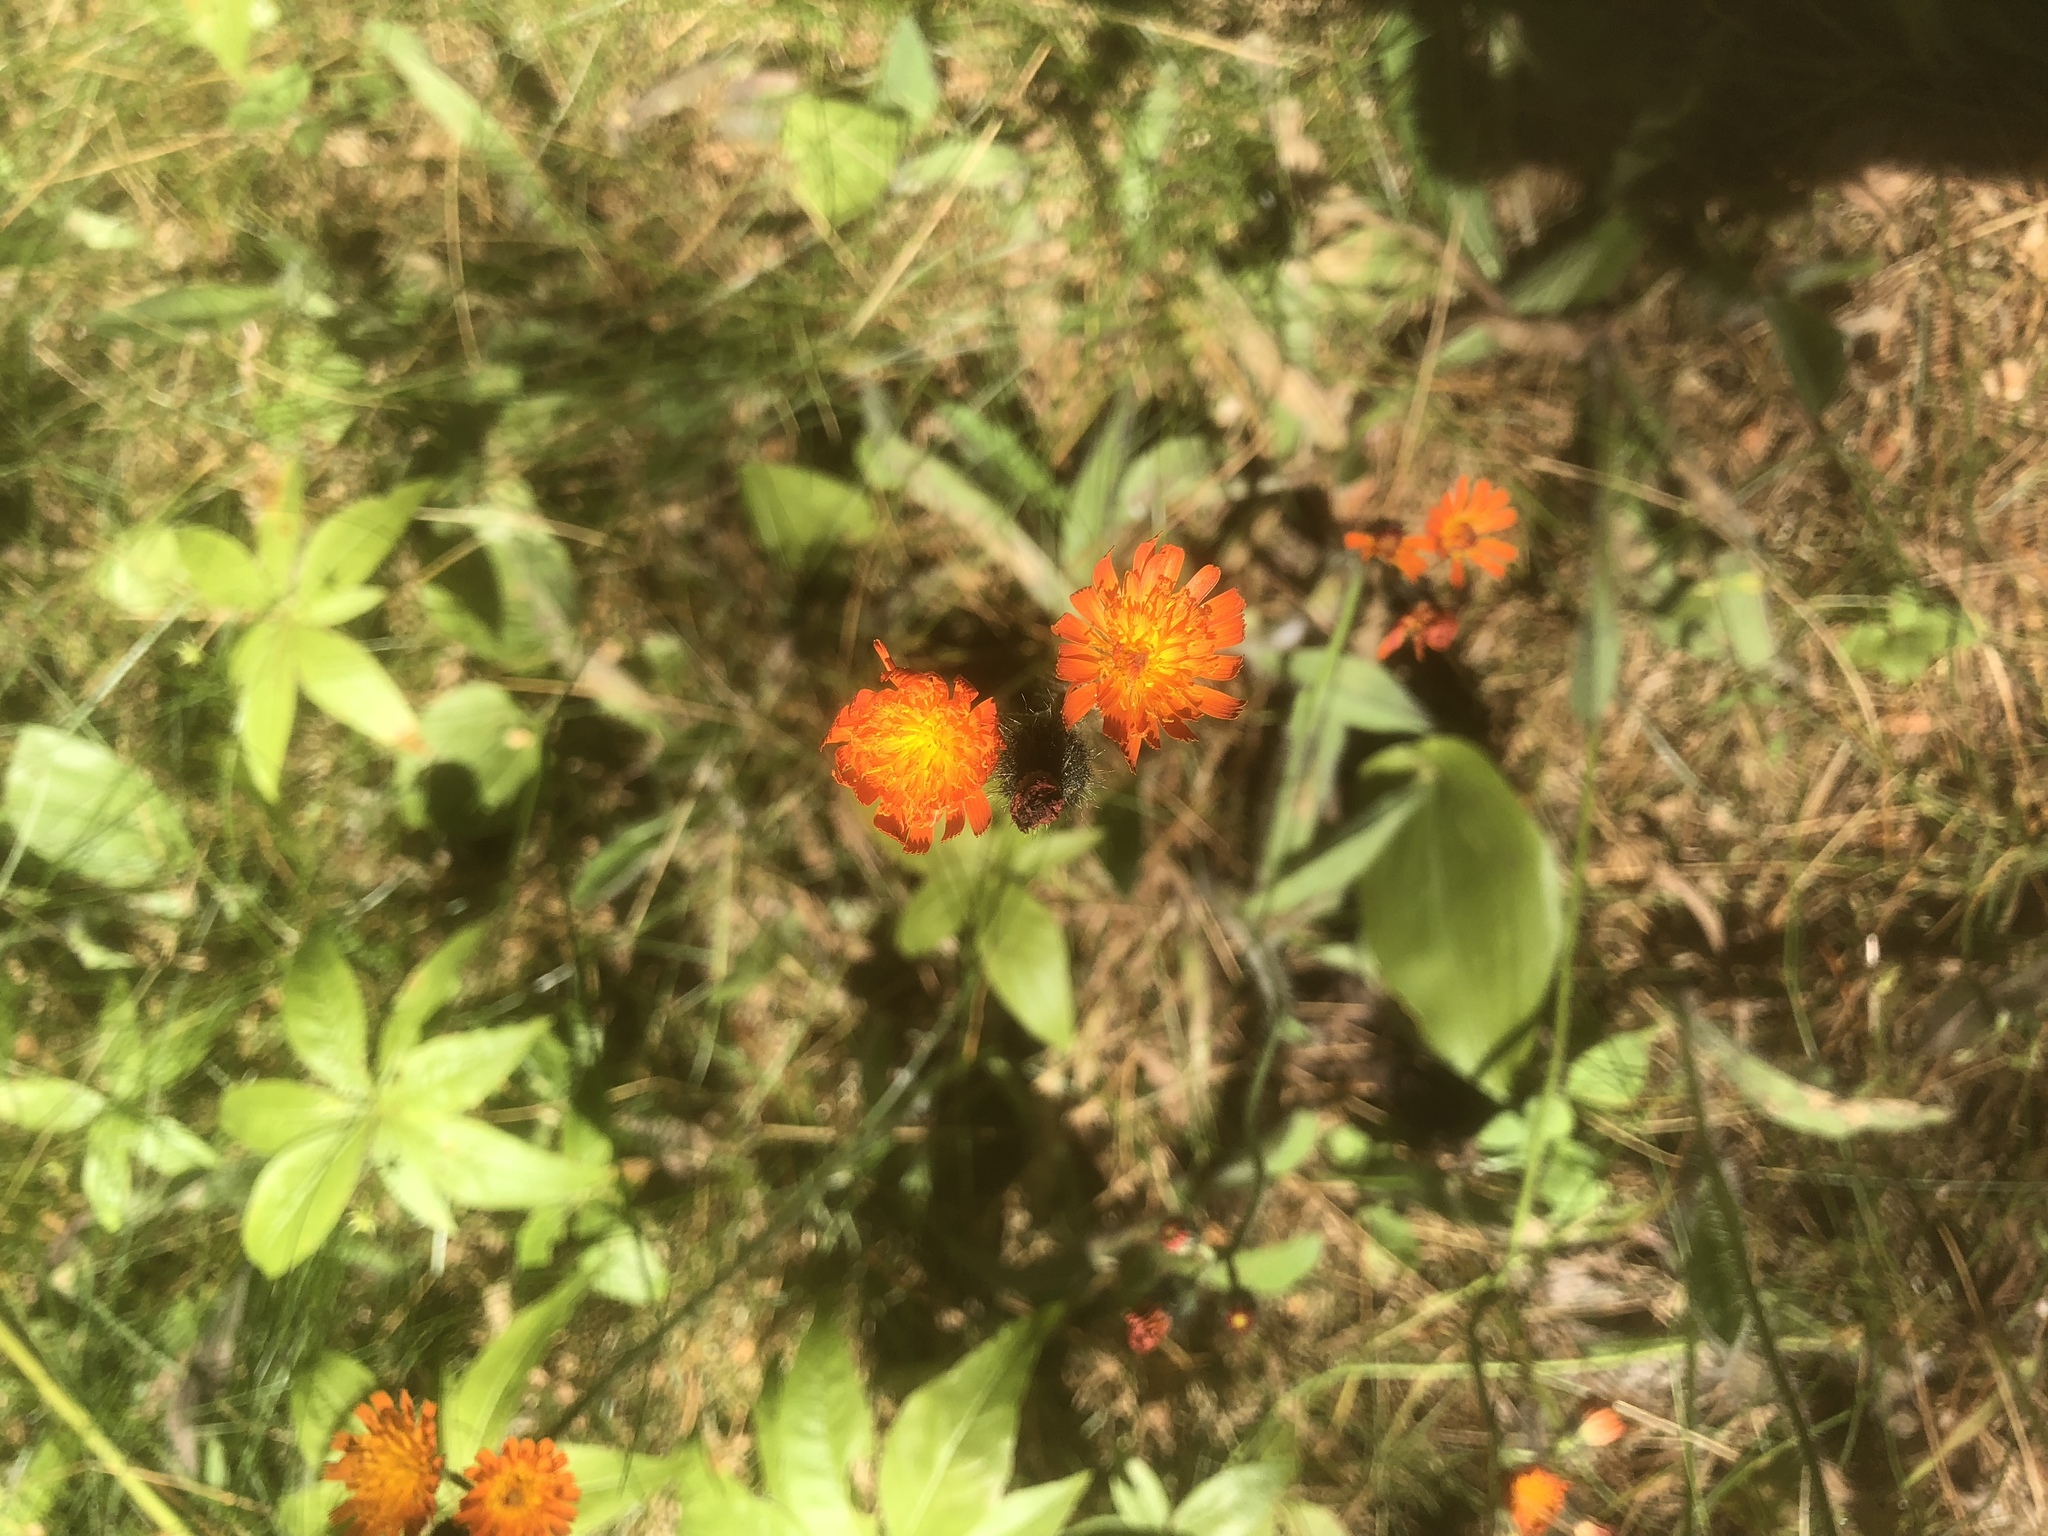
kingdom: Plantae
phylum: Tracheophyta
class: Magnoliopsida
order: Asterales
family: Asteraceae
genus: Pilosella
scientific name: Pilosella aurantiaca
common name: Fox-and-cubs
